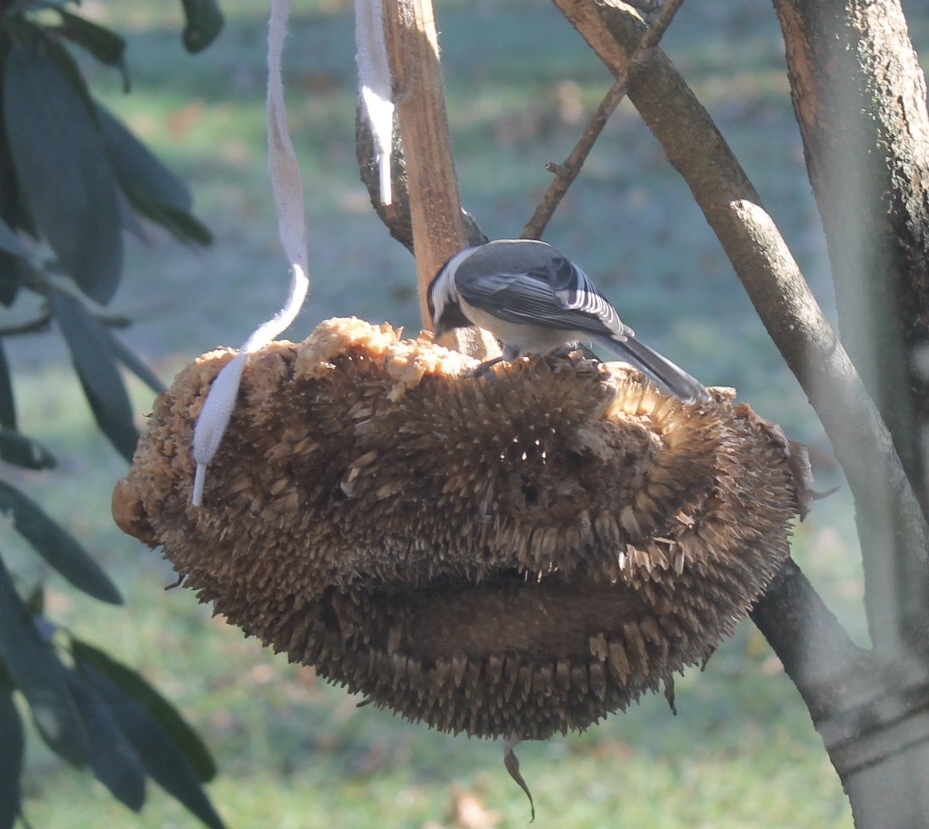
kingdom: Animalia
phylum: Chordata
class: Aves
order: Passeriformes
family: Paridae
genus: Poecile
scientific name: Poecile atricapillus
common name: Black-capped chickadee
